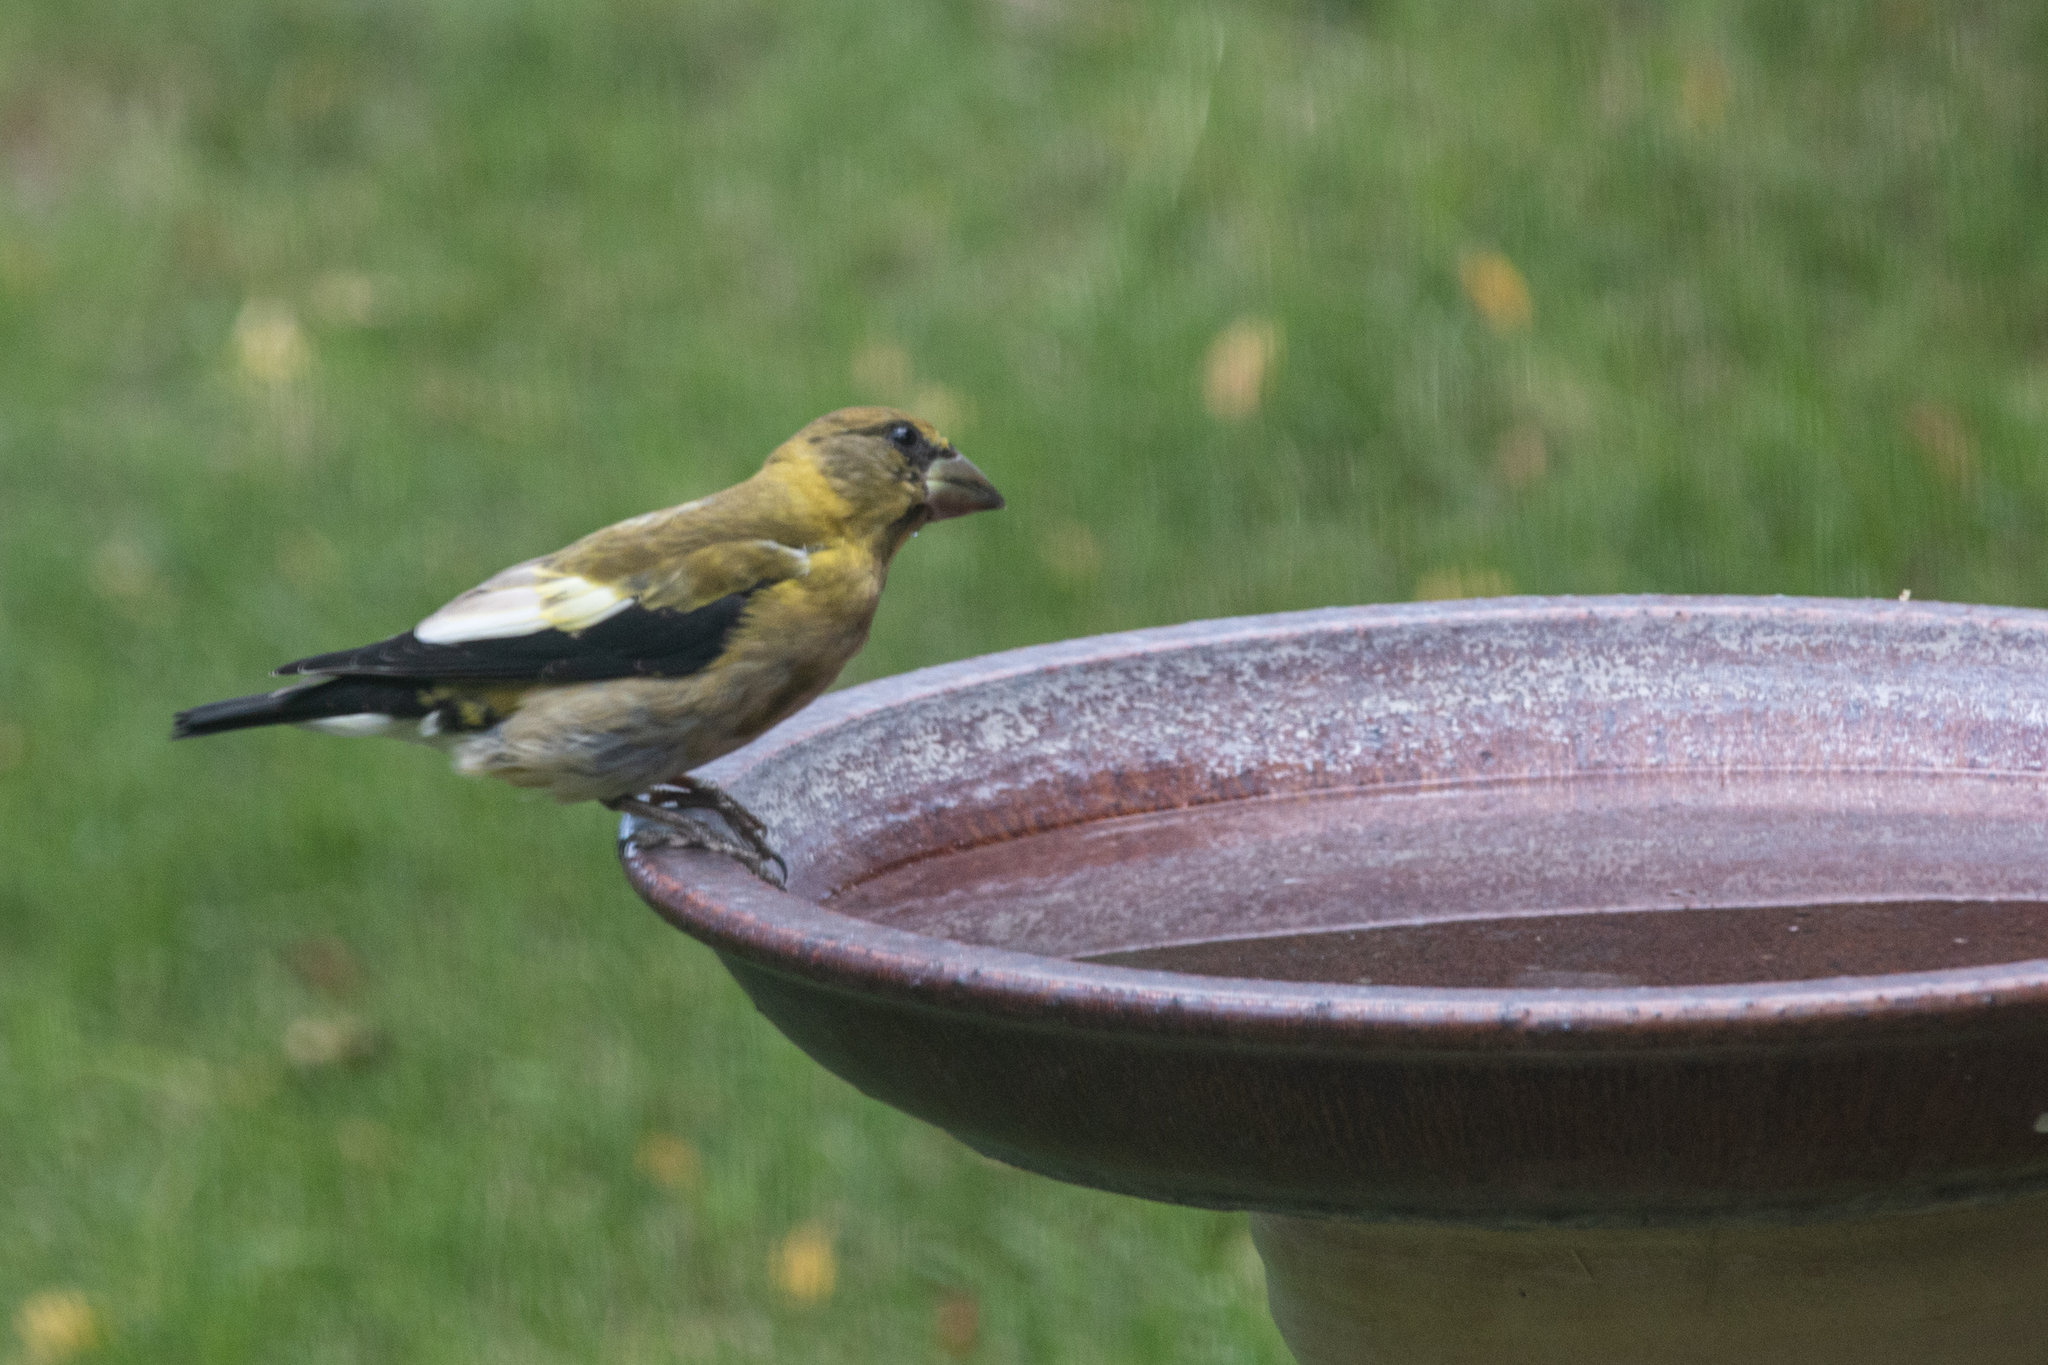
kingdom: Animalia
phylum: Chordata
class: Aves
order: Passeriformes
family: Fringillidae
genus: Hesperiphona
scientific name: Hesperiphona vespertina
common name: Evening grosbeak
